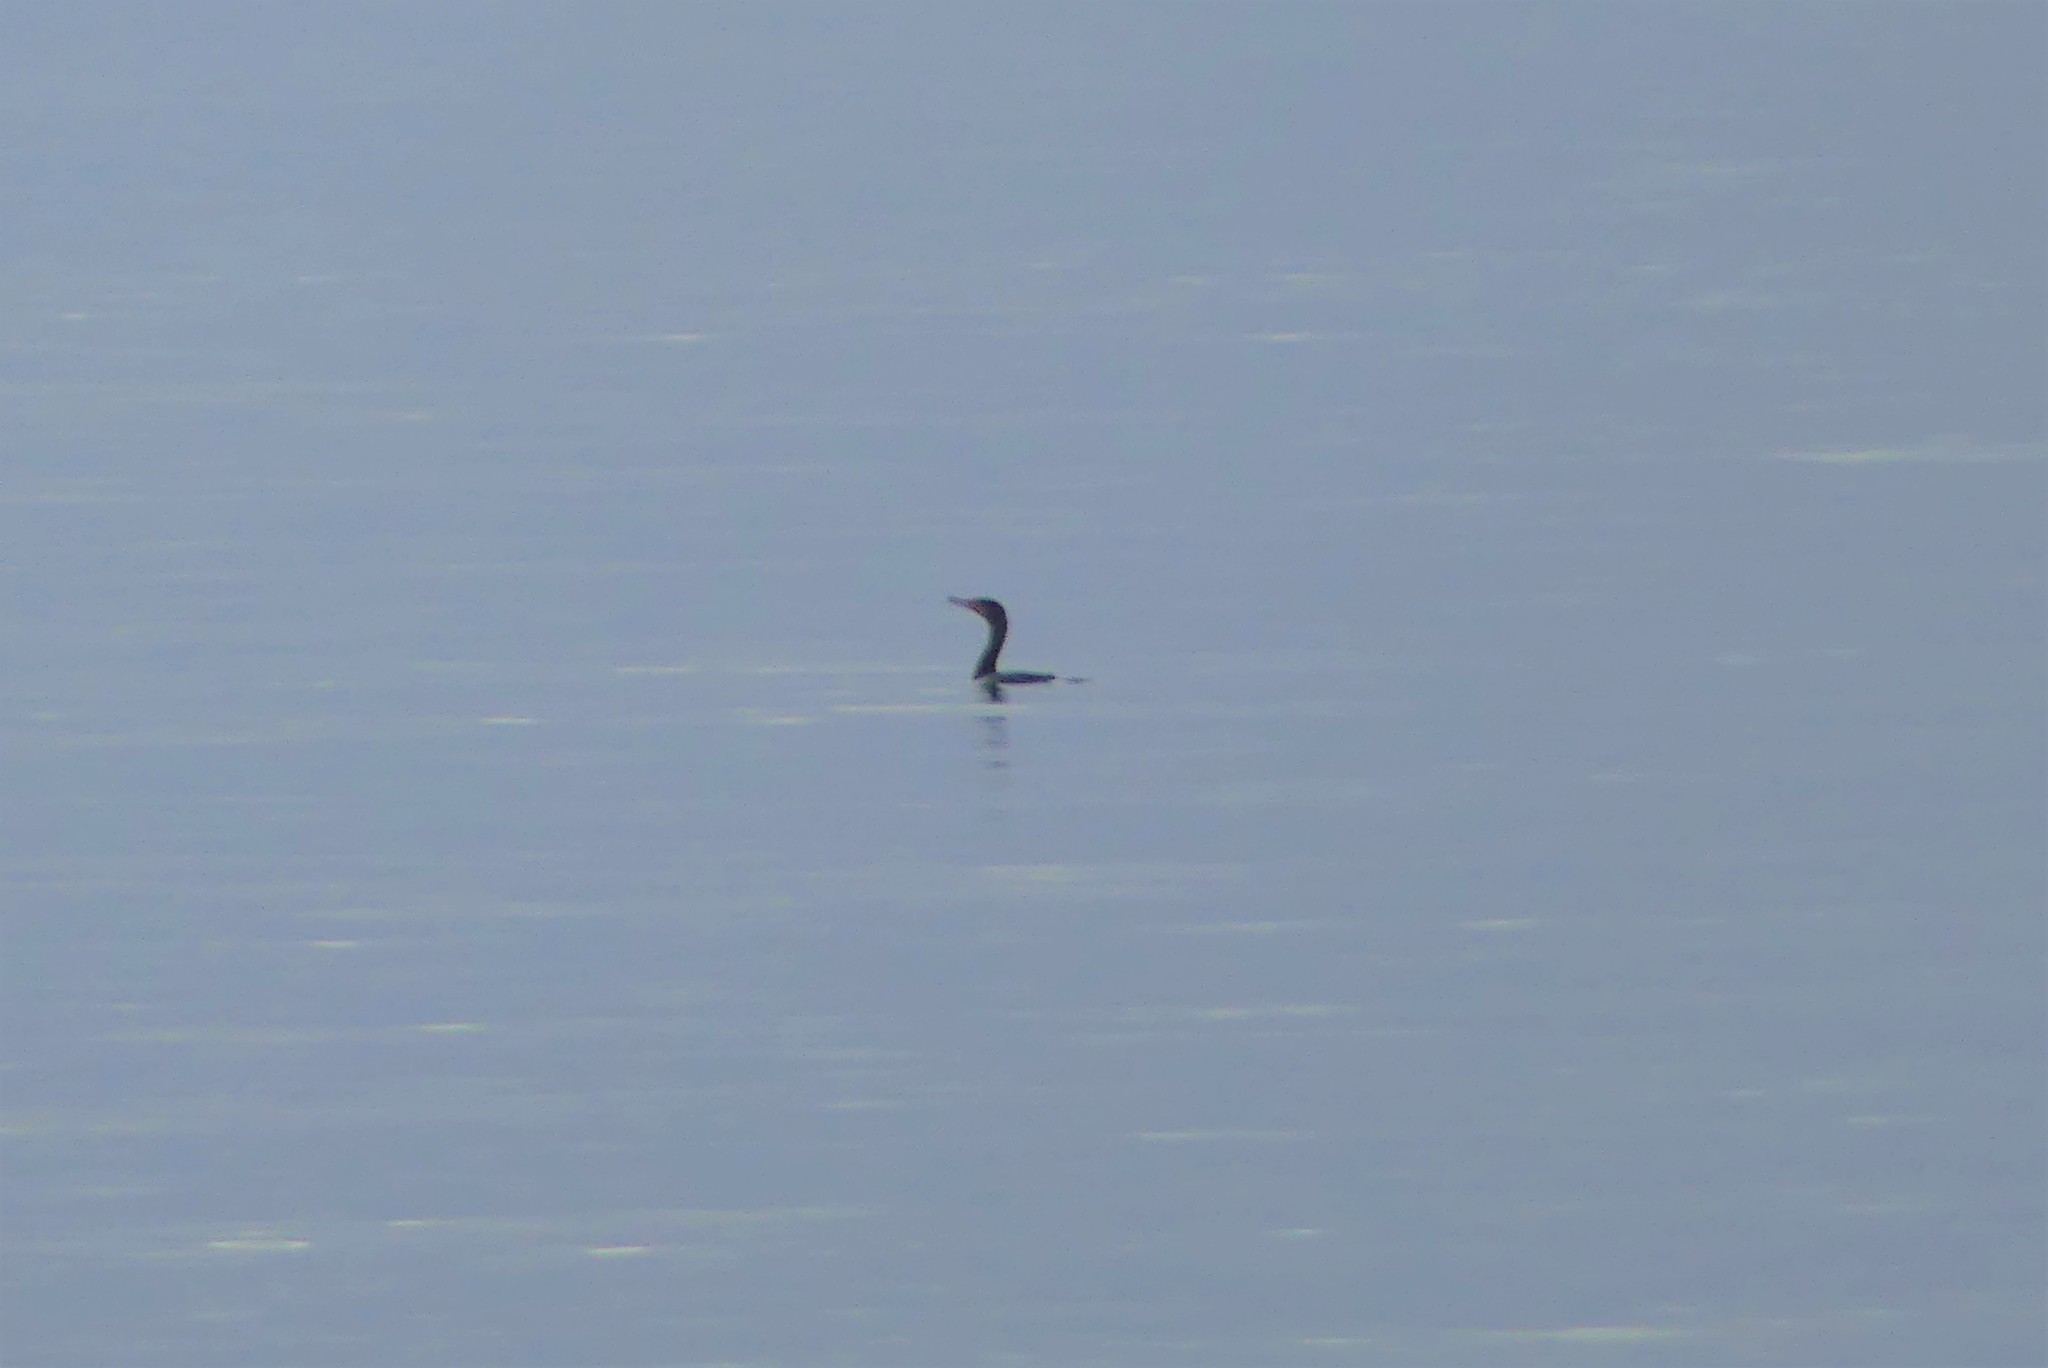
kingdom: Animalia
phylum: Chordata
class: Aves
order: Suliformes
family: Phalacrocoracidae
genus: Phalacrocorax
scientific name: Phalacrocorax auritus
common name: Double-crested cormorant
